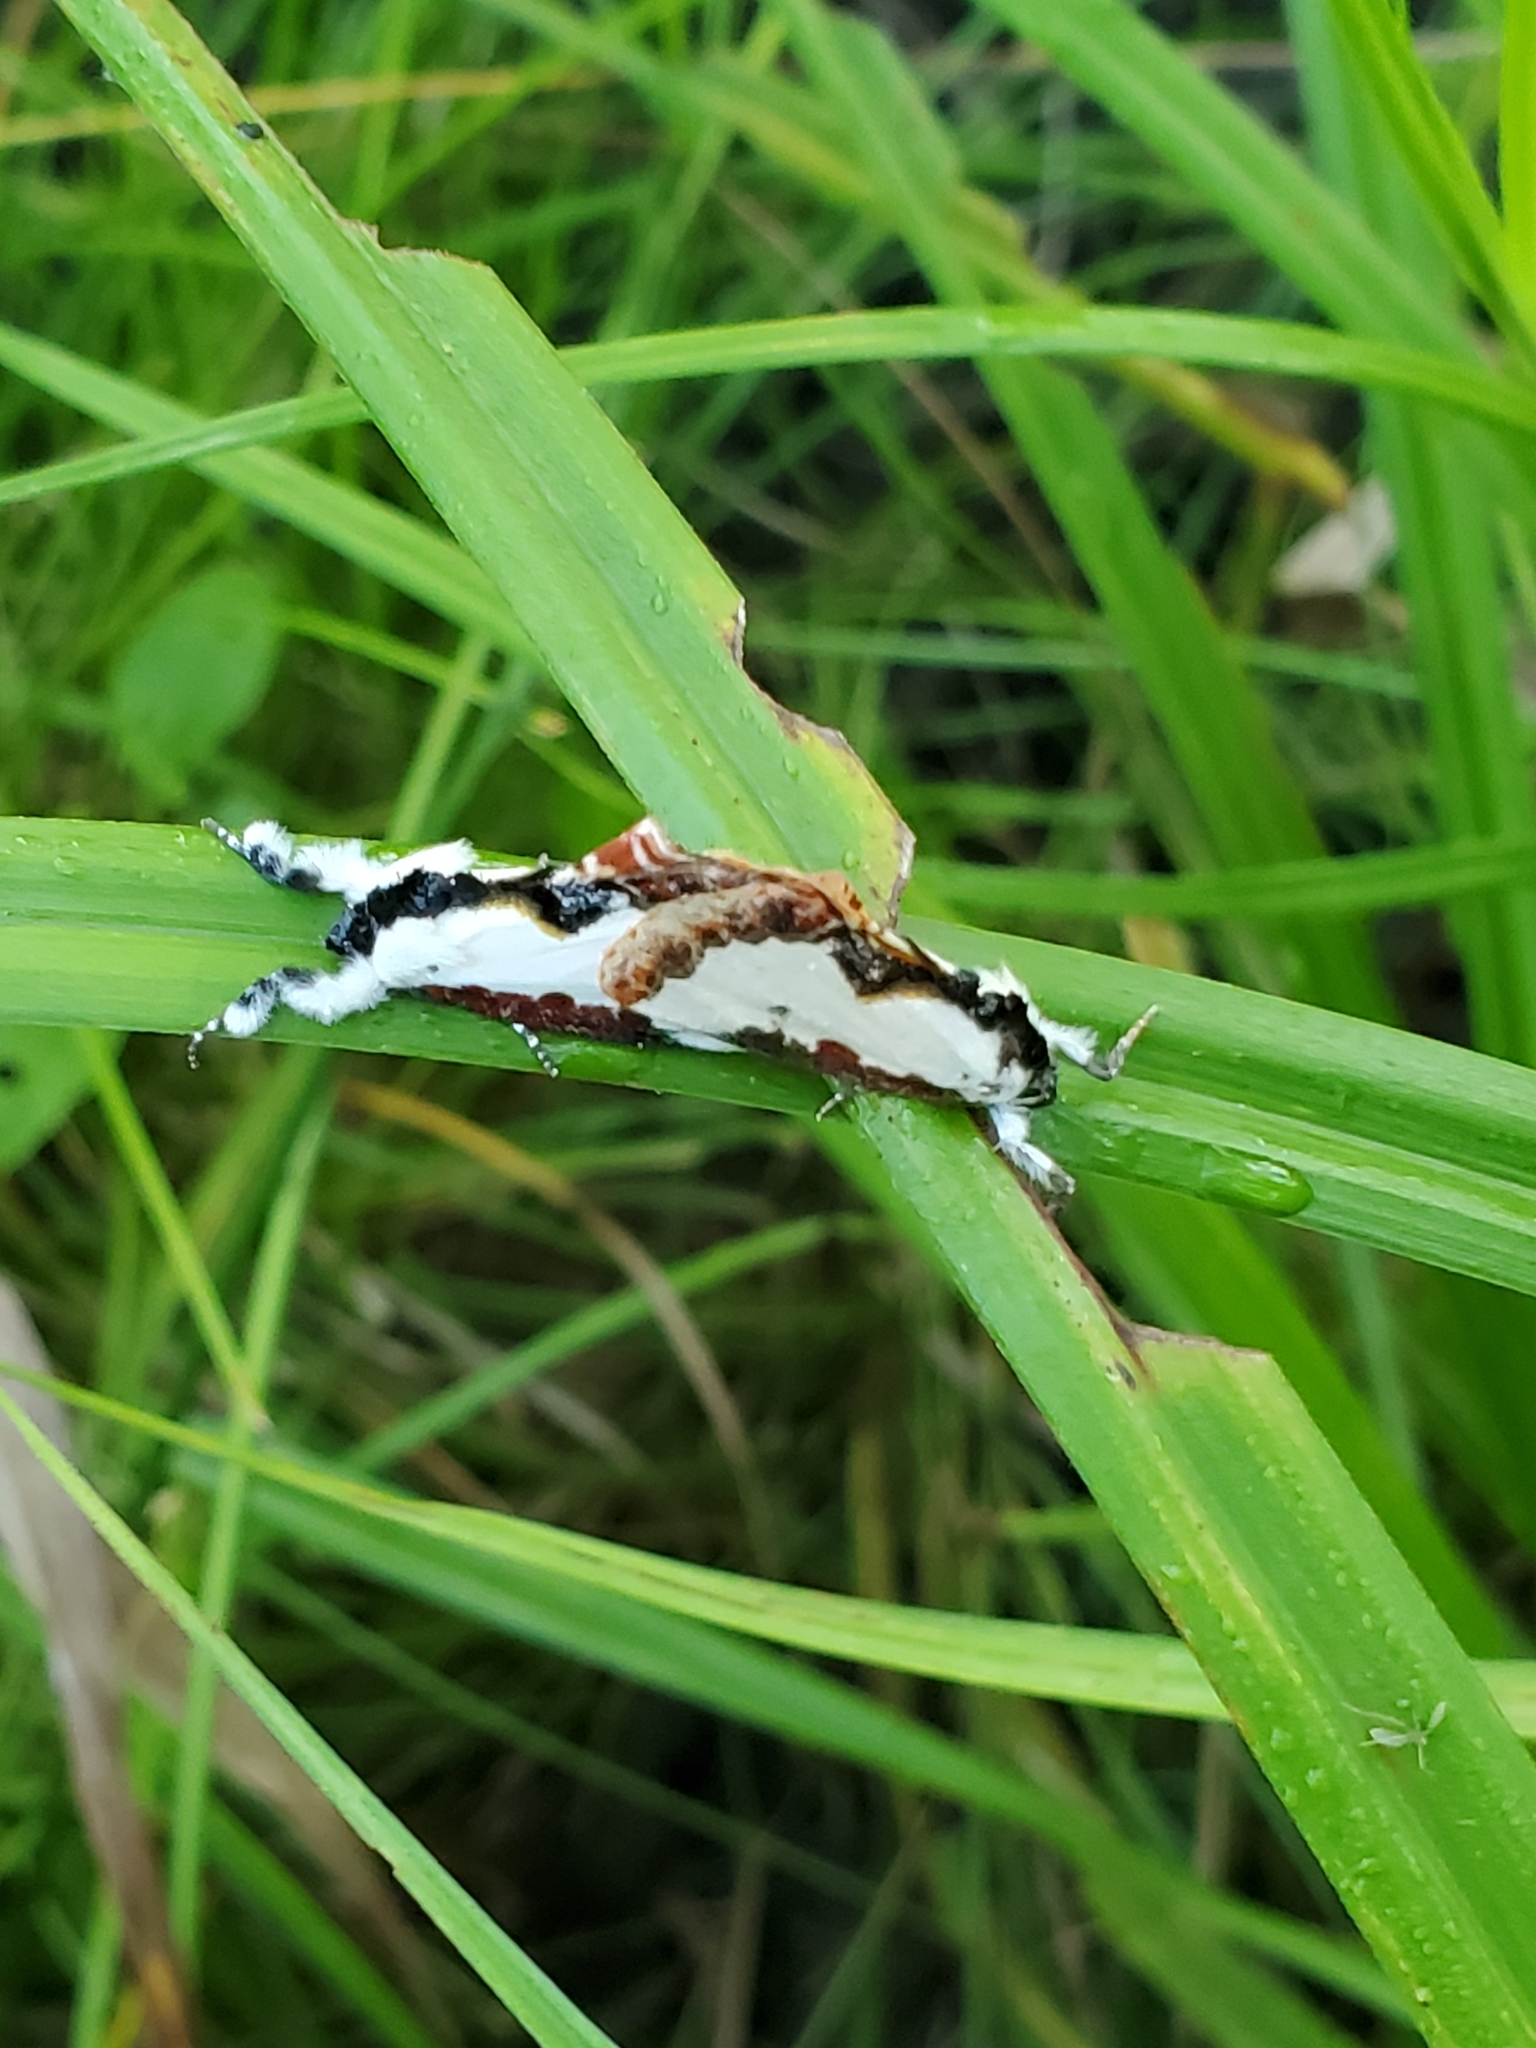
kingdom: Animalia
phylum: Arthropoda
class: Insecta
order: Lepidoptera
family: Noctuidae
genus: Eudryas
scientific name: Eudryas unio
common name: Pearly wood-nymph
